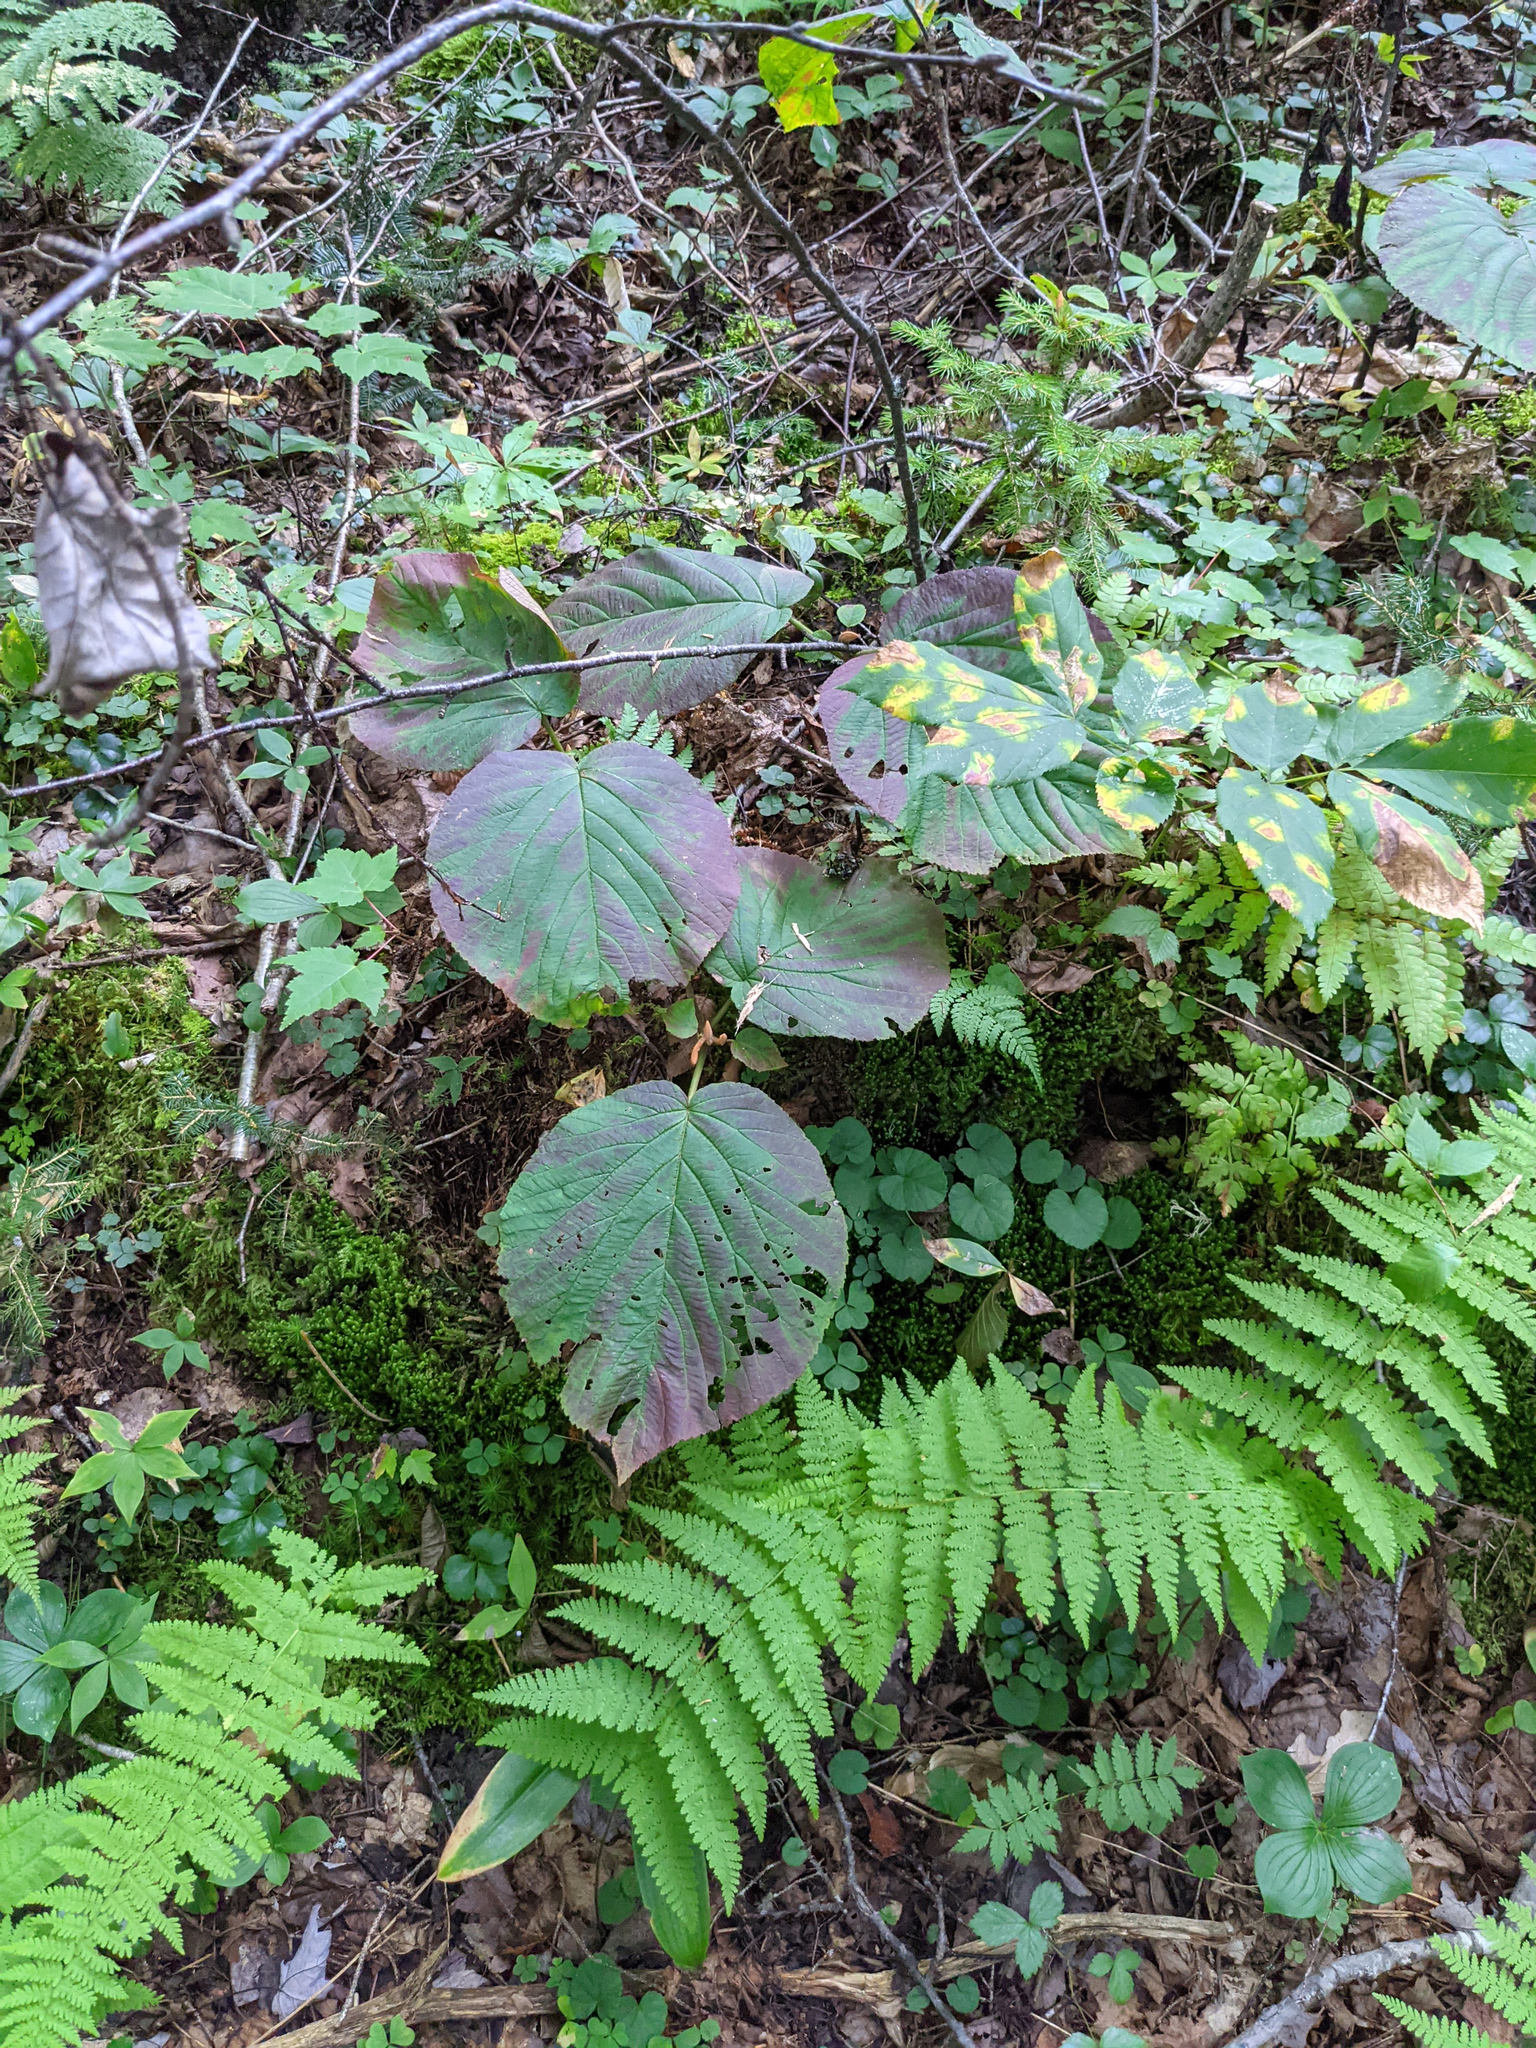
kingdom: Plantae
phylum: Tracheophyta
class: Magnoliopsida
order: Dipsacales
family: Viburnaceae
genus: Viburnum
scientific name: Viburnum lantanoides
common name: Hobblebush
